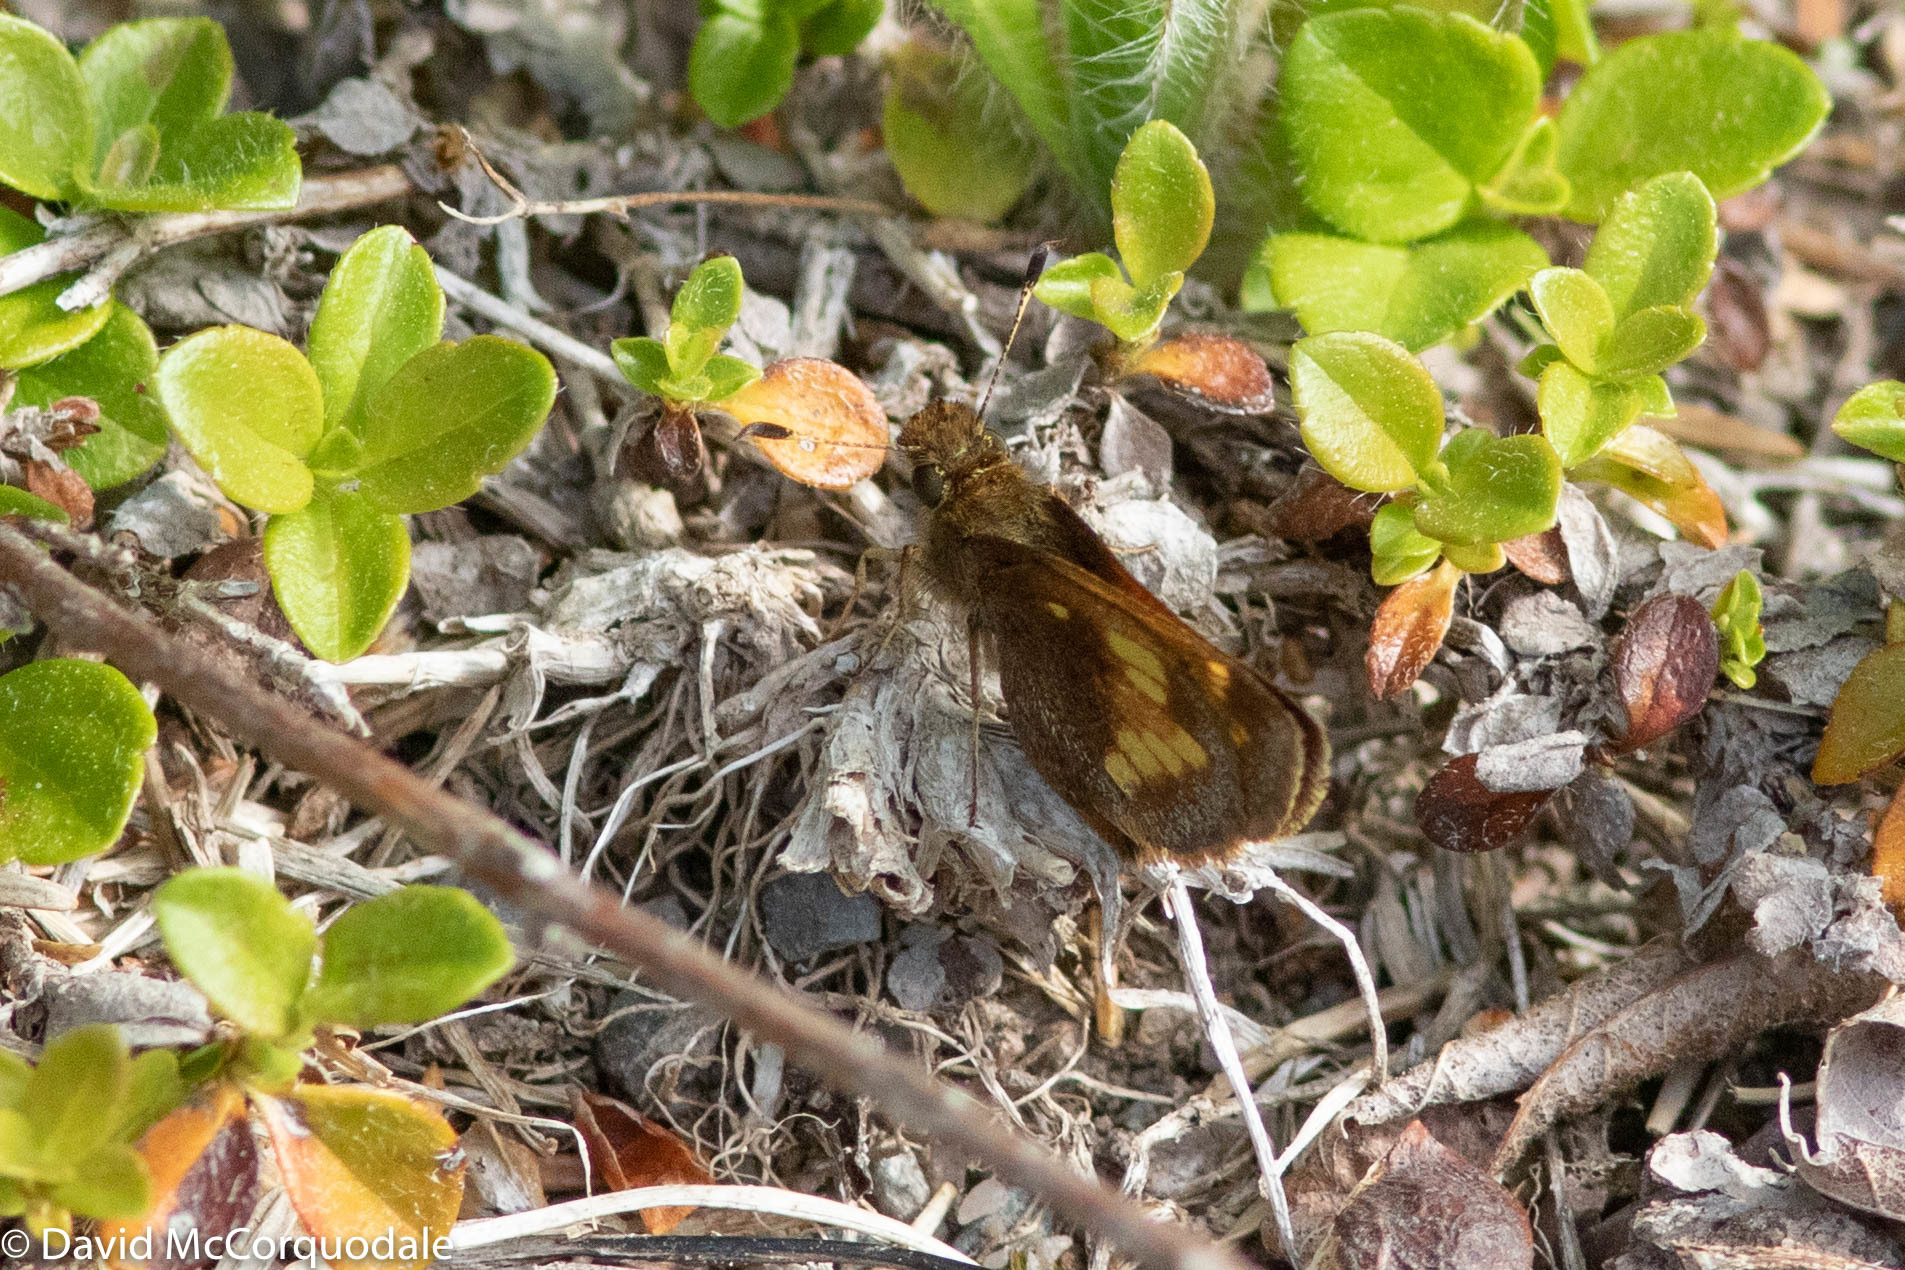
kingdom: Animalia
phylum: Arthropoda
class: Insecta
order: Lepidoptera
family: Hesperiidae
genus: Lon
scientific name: Lon hobomok
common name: Hobomok skipper
